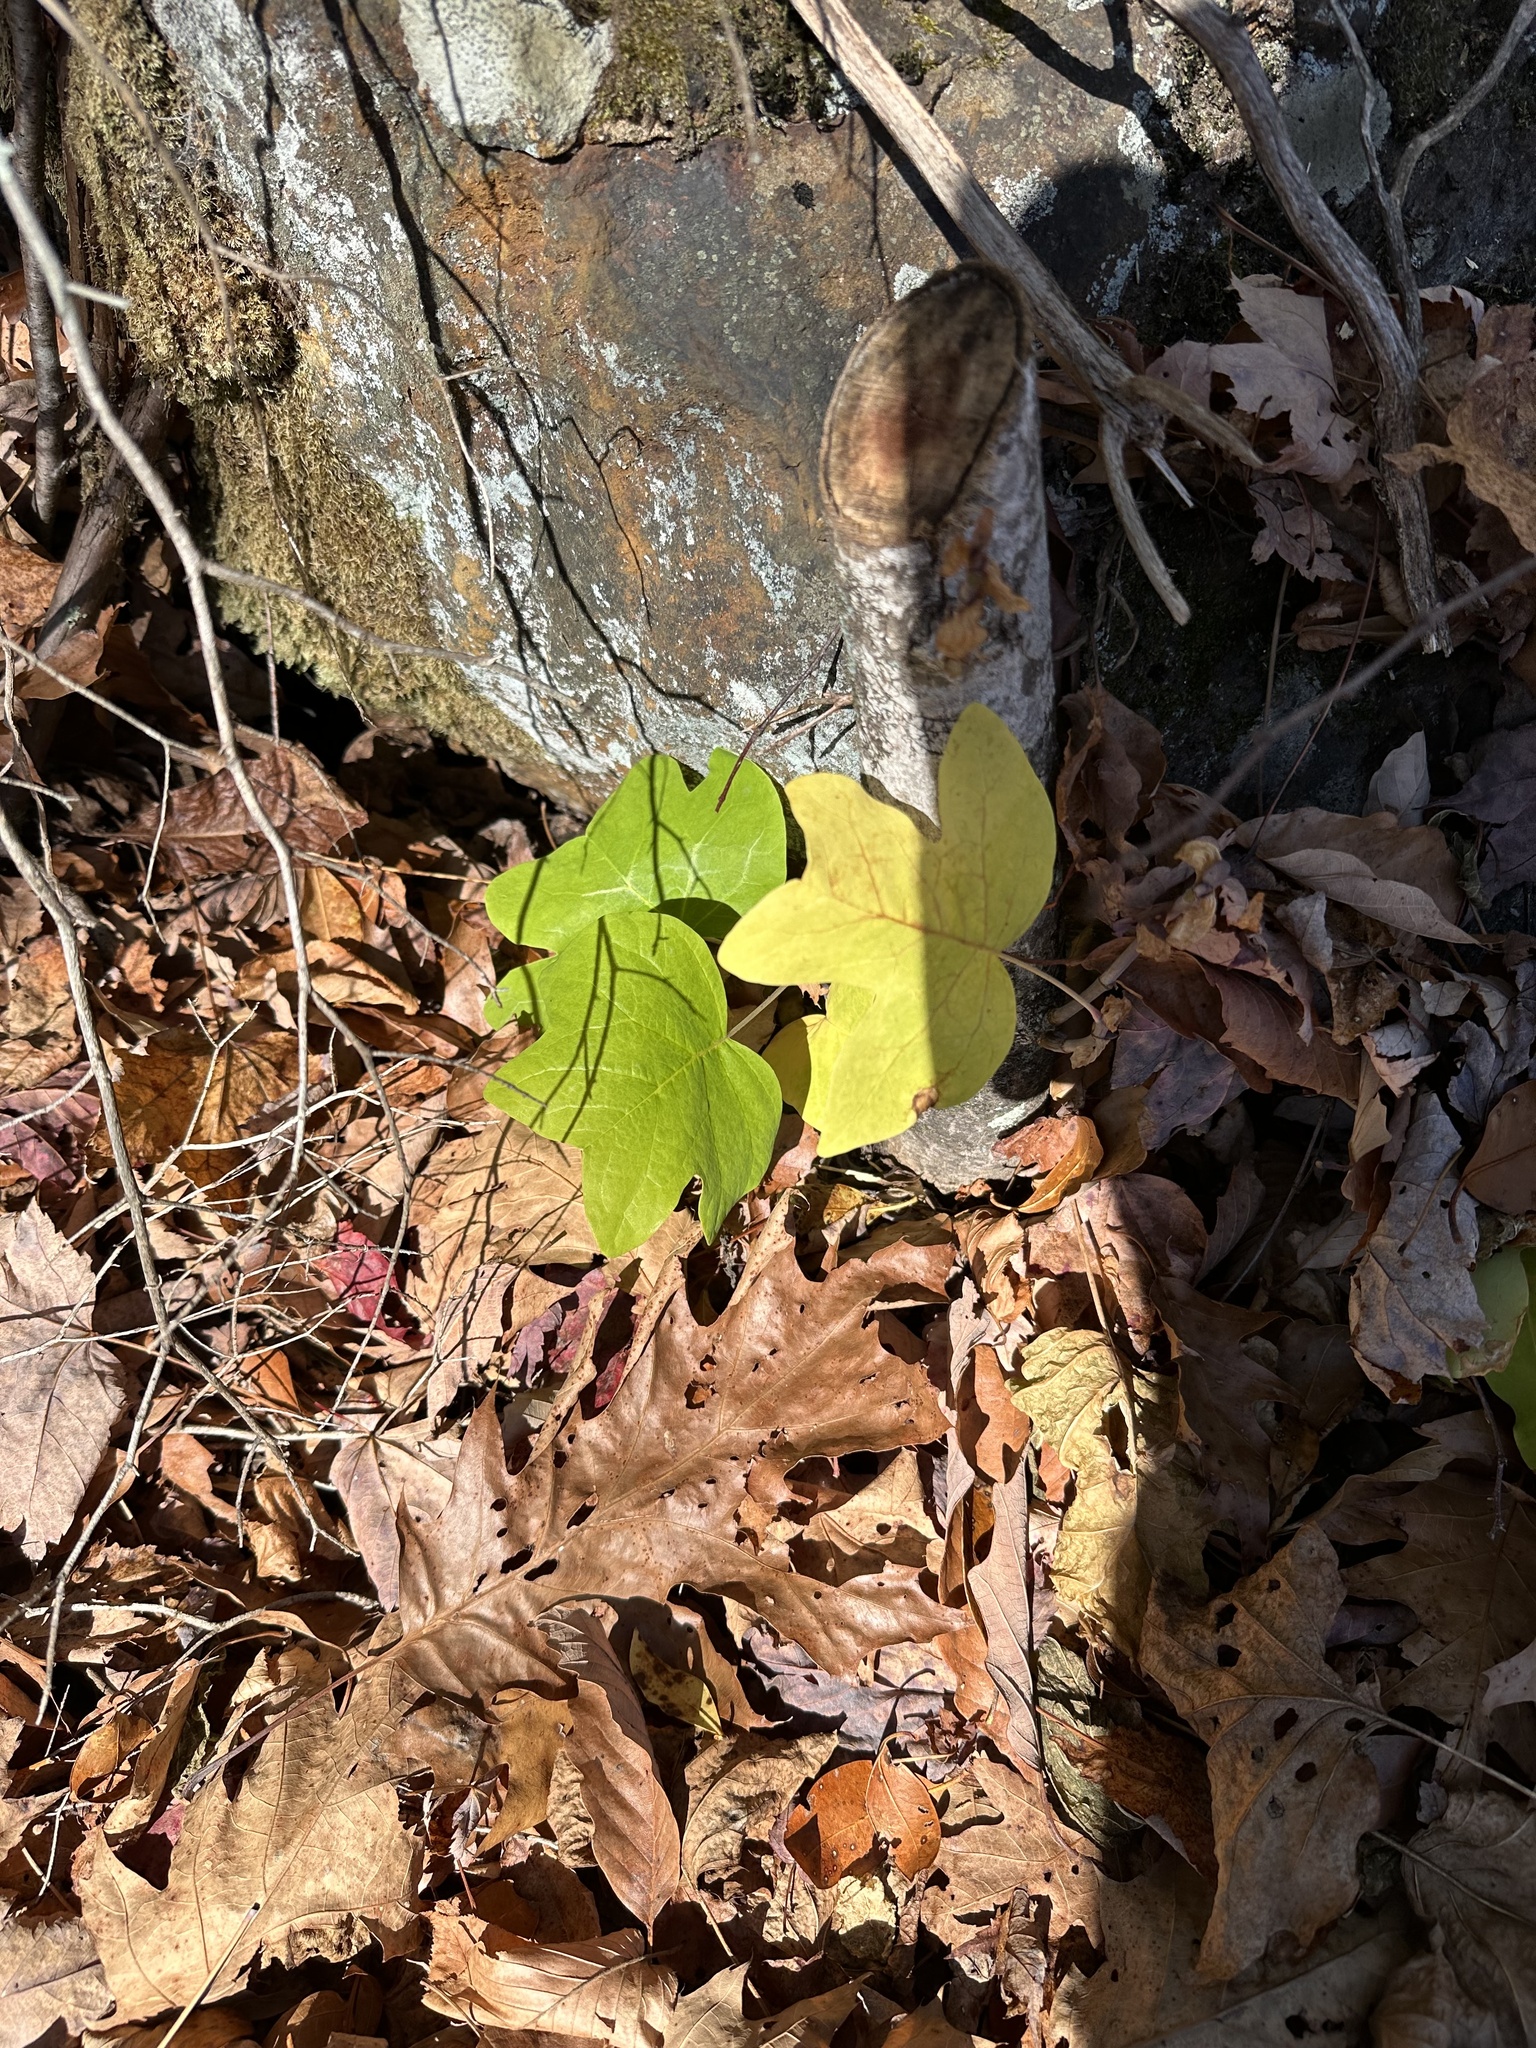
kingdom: Plantae
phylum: Tracheophyta
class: Magnoliopsida
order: Magnoliales
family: Magnoliaceae
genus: Liriodendron
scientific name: Liriodendron tulipifera
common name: Tulip tree
